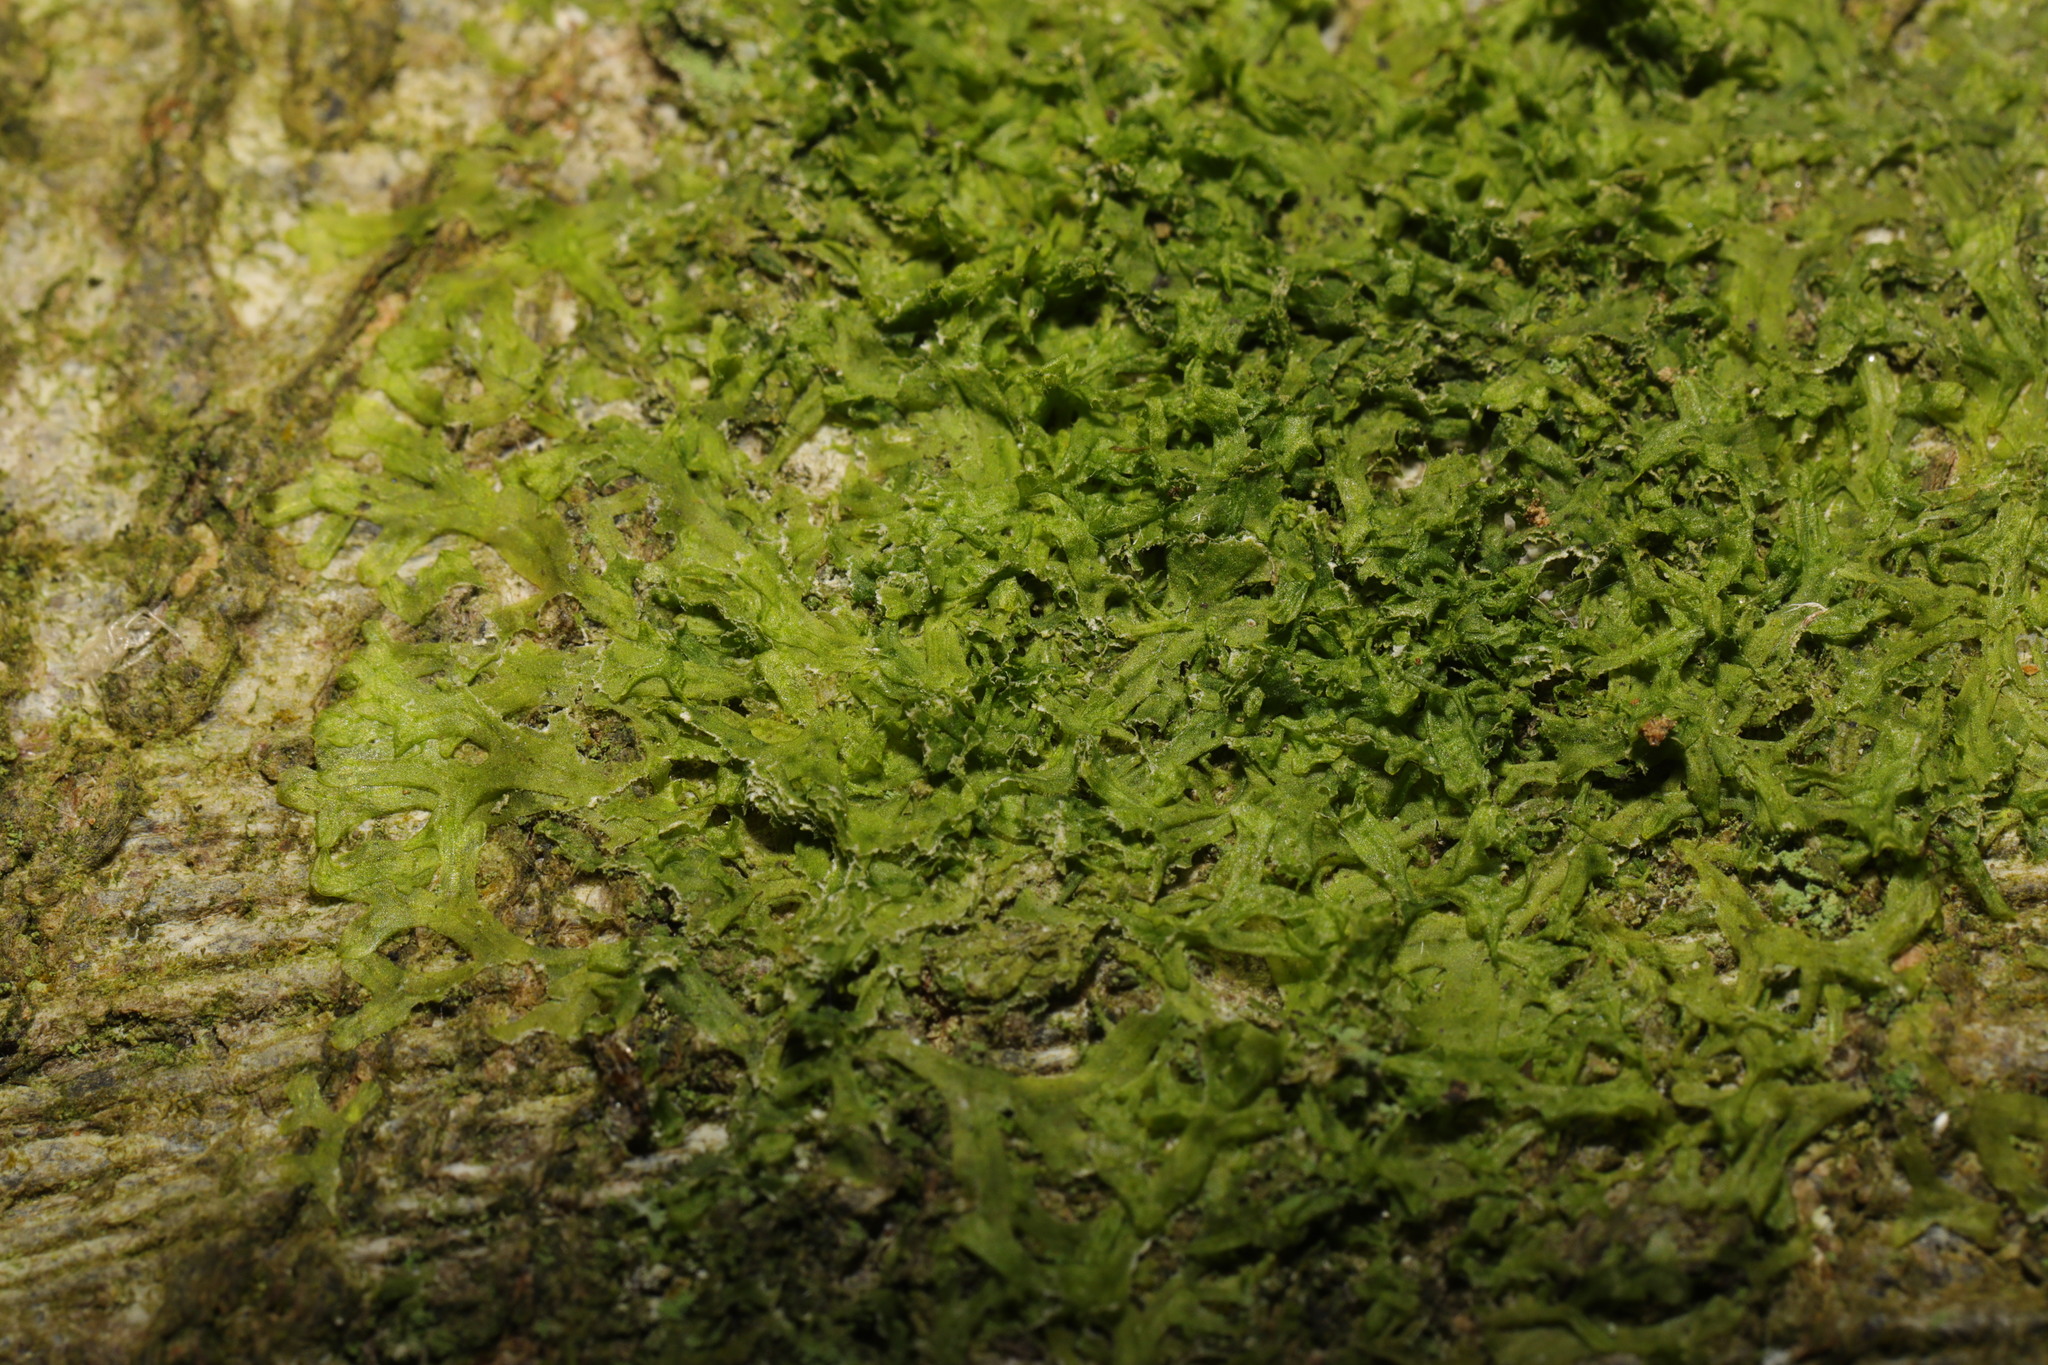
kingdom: Plantae
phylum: Marchantiophyta
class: Jungermanniopsida
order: Metzgeriales
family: Metzgeriaceae
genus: Metzgeria
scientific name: Metzgeria furcata
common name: Forked veilwort
